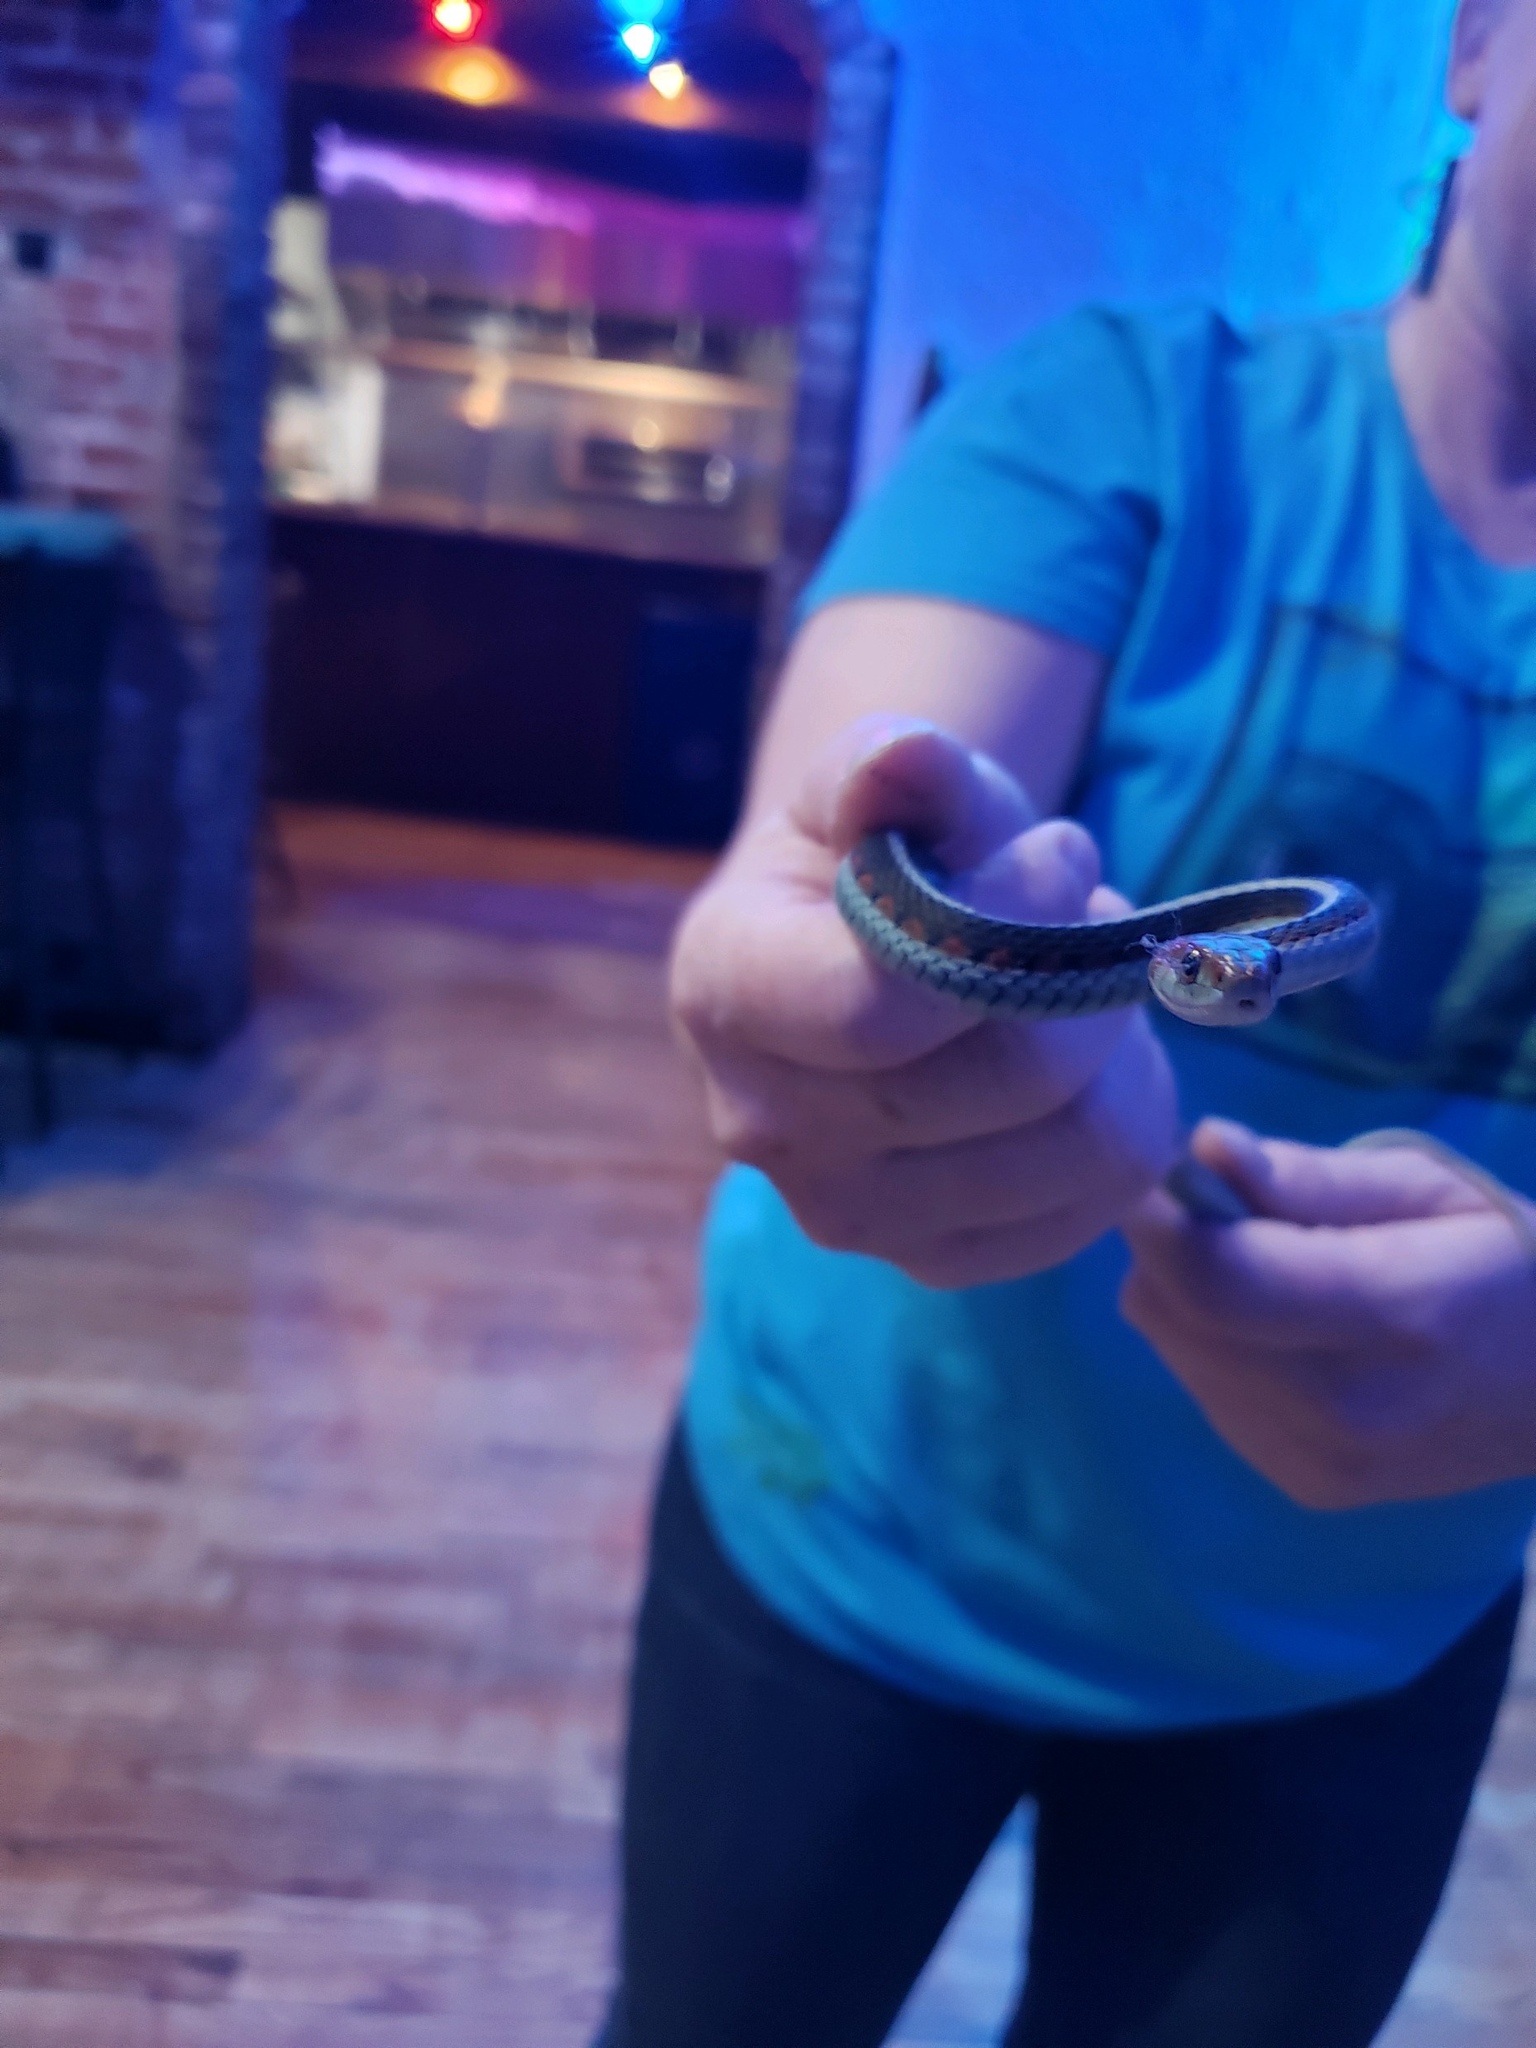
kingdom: Animalia
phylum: Chordata
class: Squamata
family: Colubridae
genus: Thamnophis
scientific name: Thamnophis sirtalis
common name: Common garter snake
